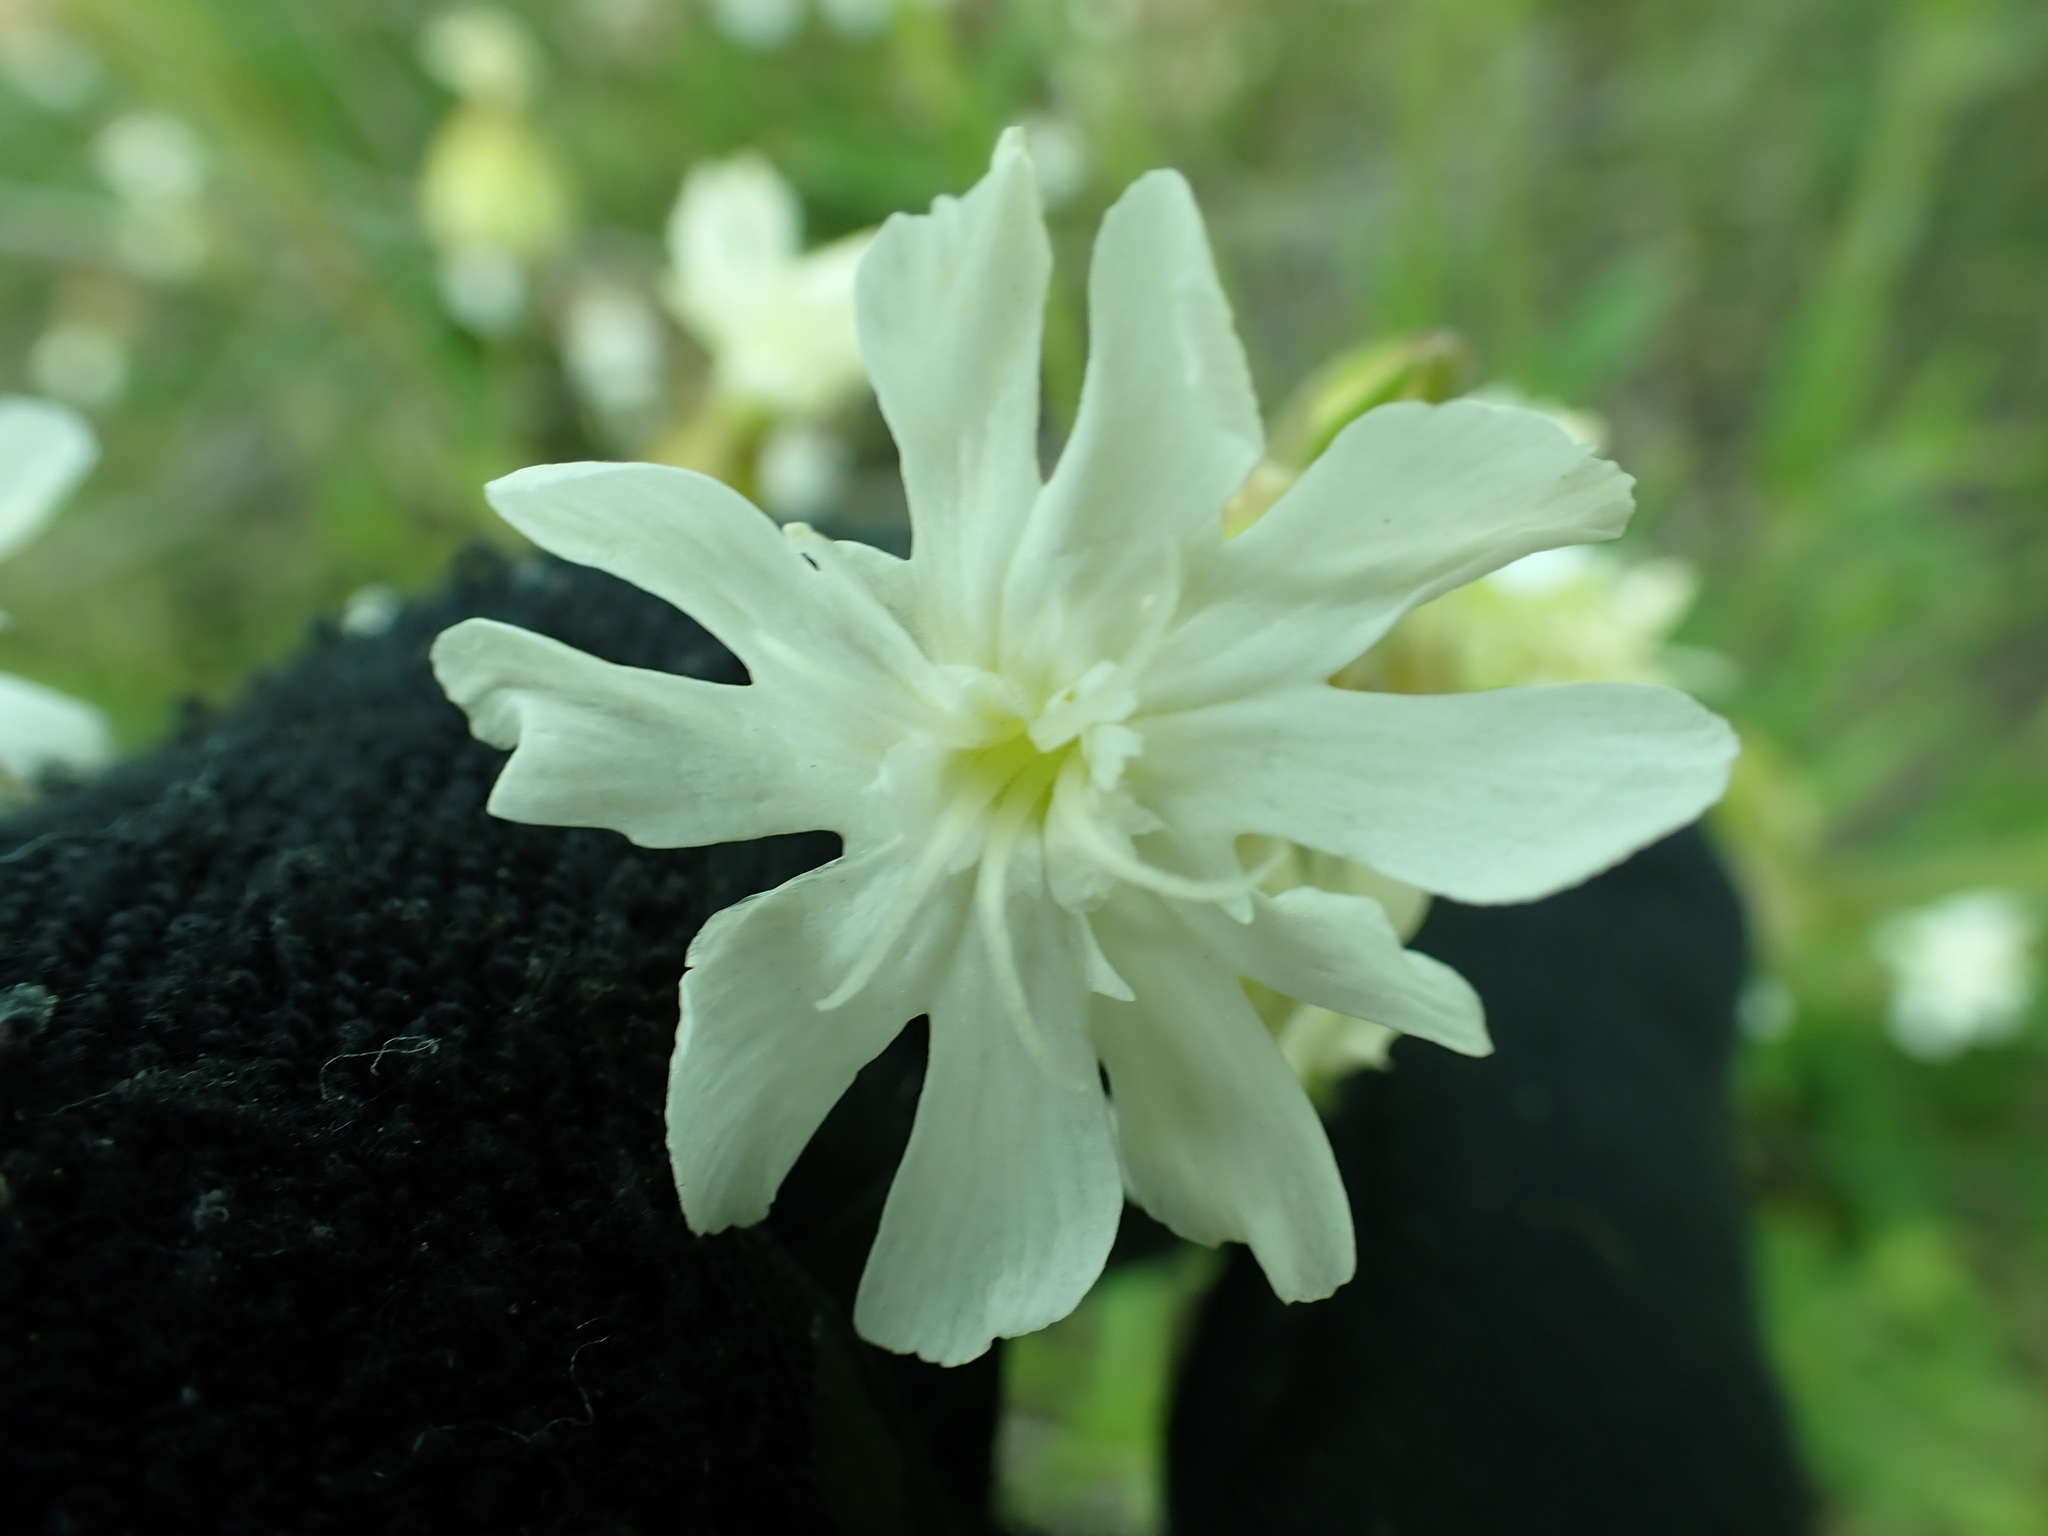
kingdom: Plantae
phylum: Tracheophyta
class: Magnoliopsida
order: Caryophyllales
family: Caryophyllaceae
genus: Silene
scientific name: Silene latifolia
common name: White campion
